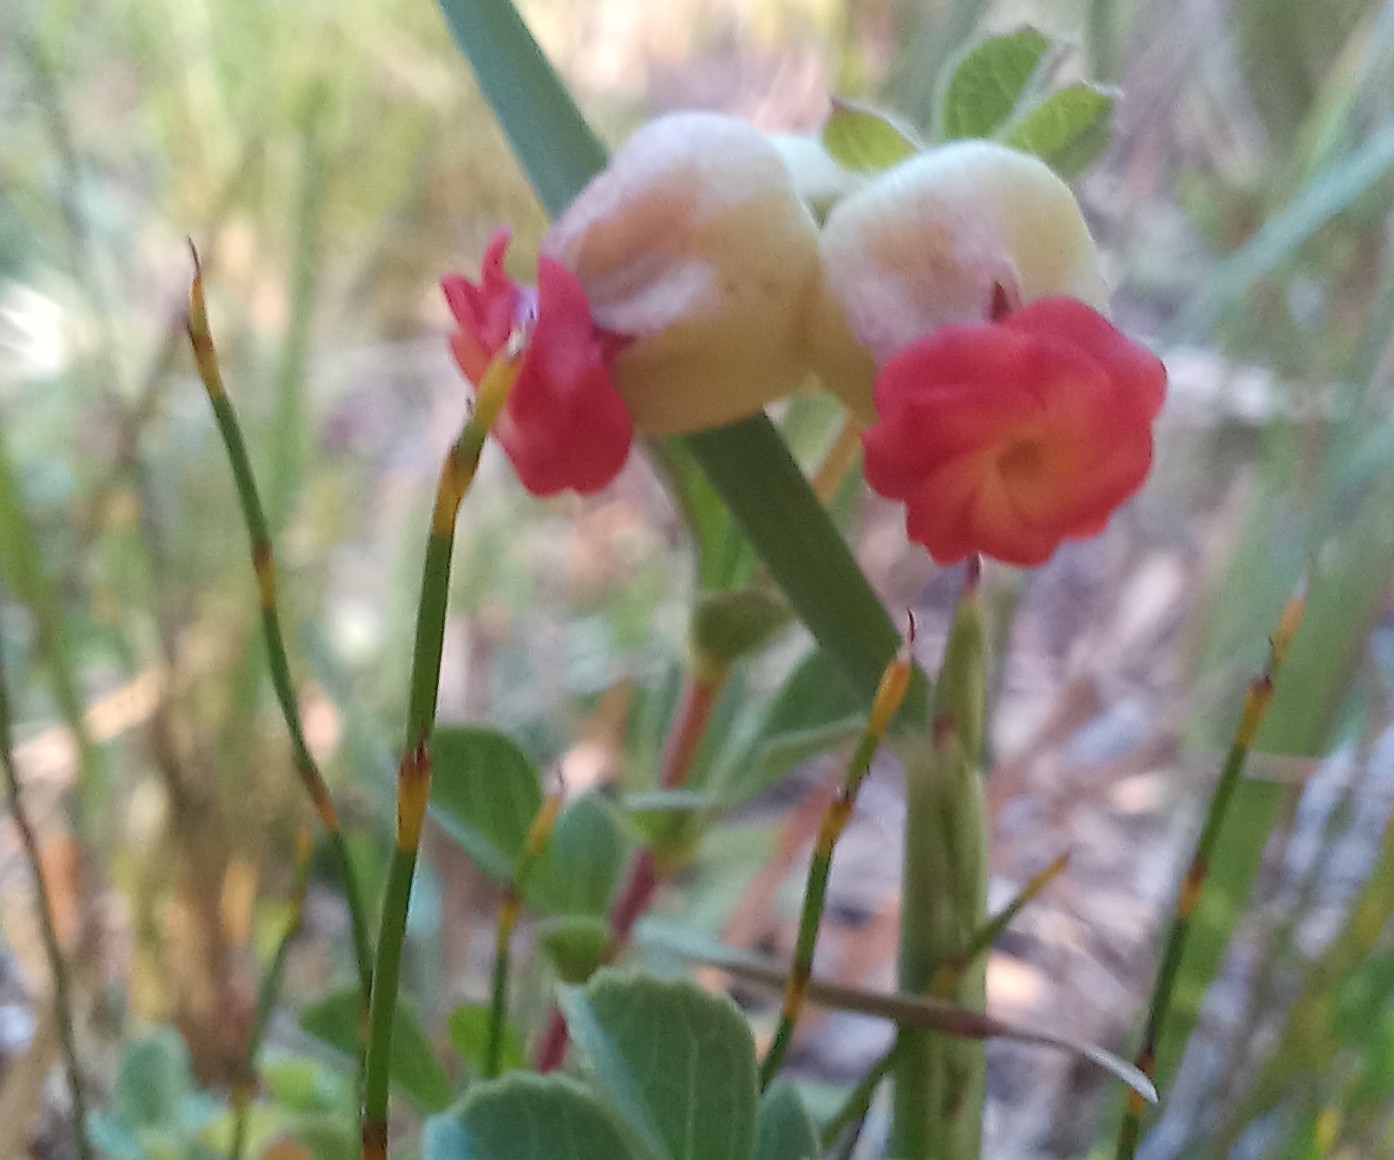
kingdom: Plantae
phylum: Tracheophyta
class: Magnoliopsida
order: Malvales
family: Malvaceae
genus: Hermannia
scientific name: Hermannia ternifolia
